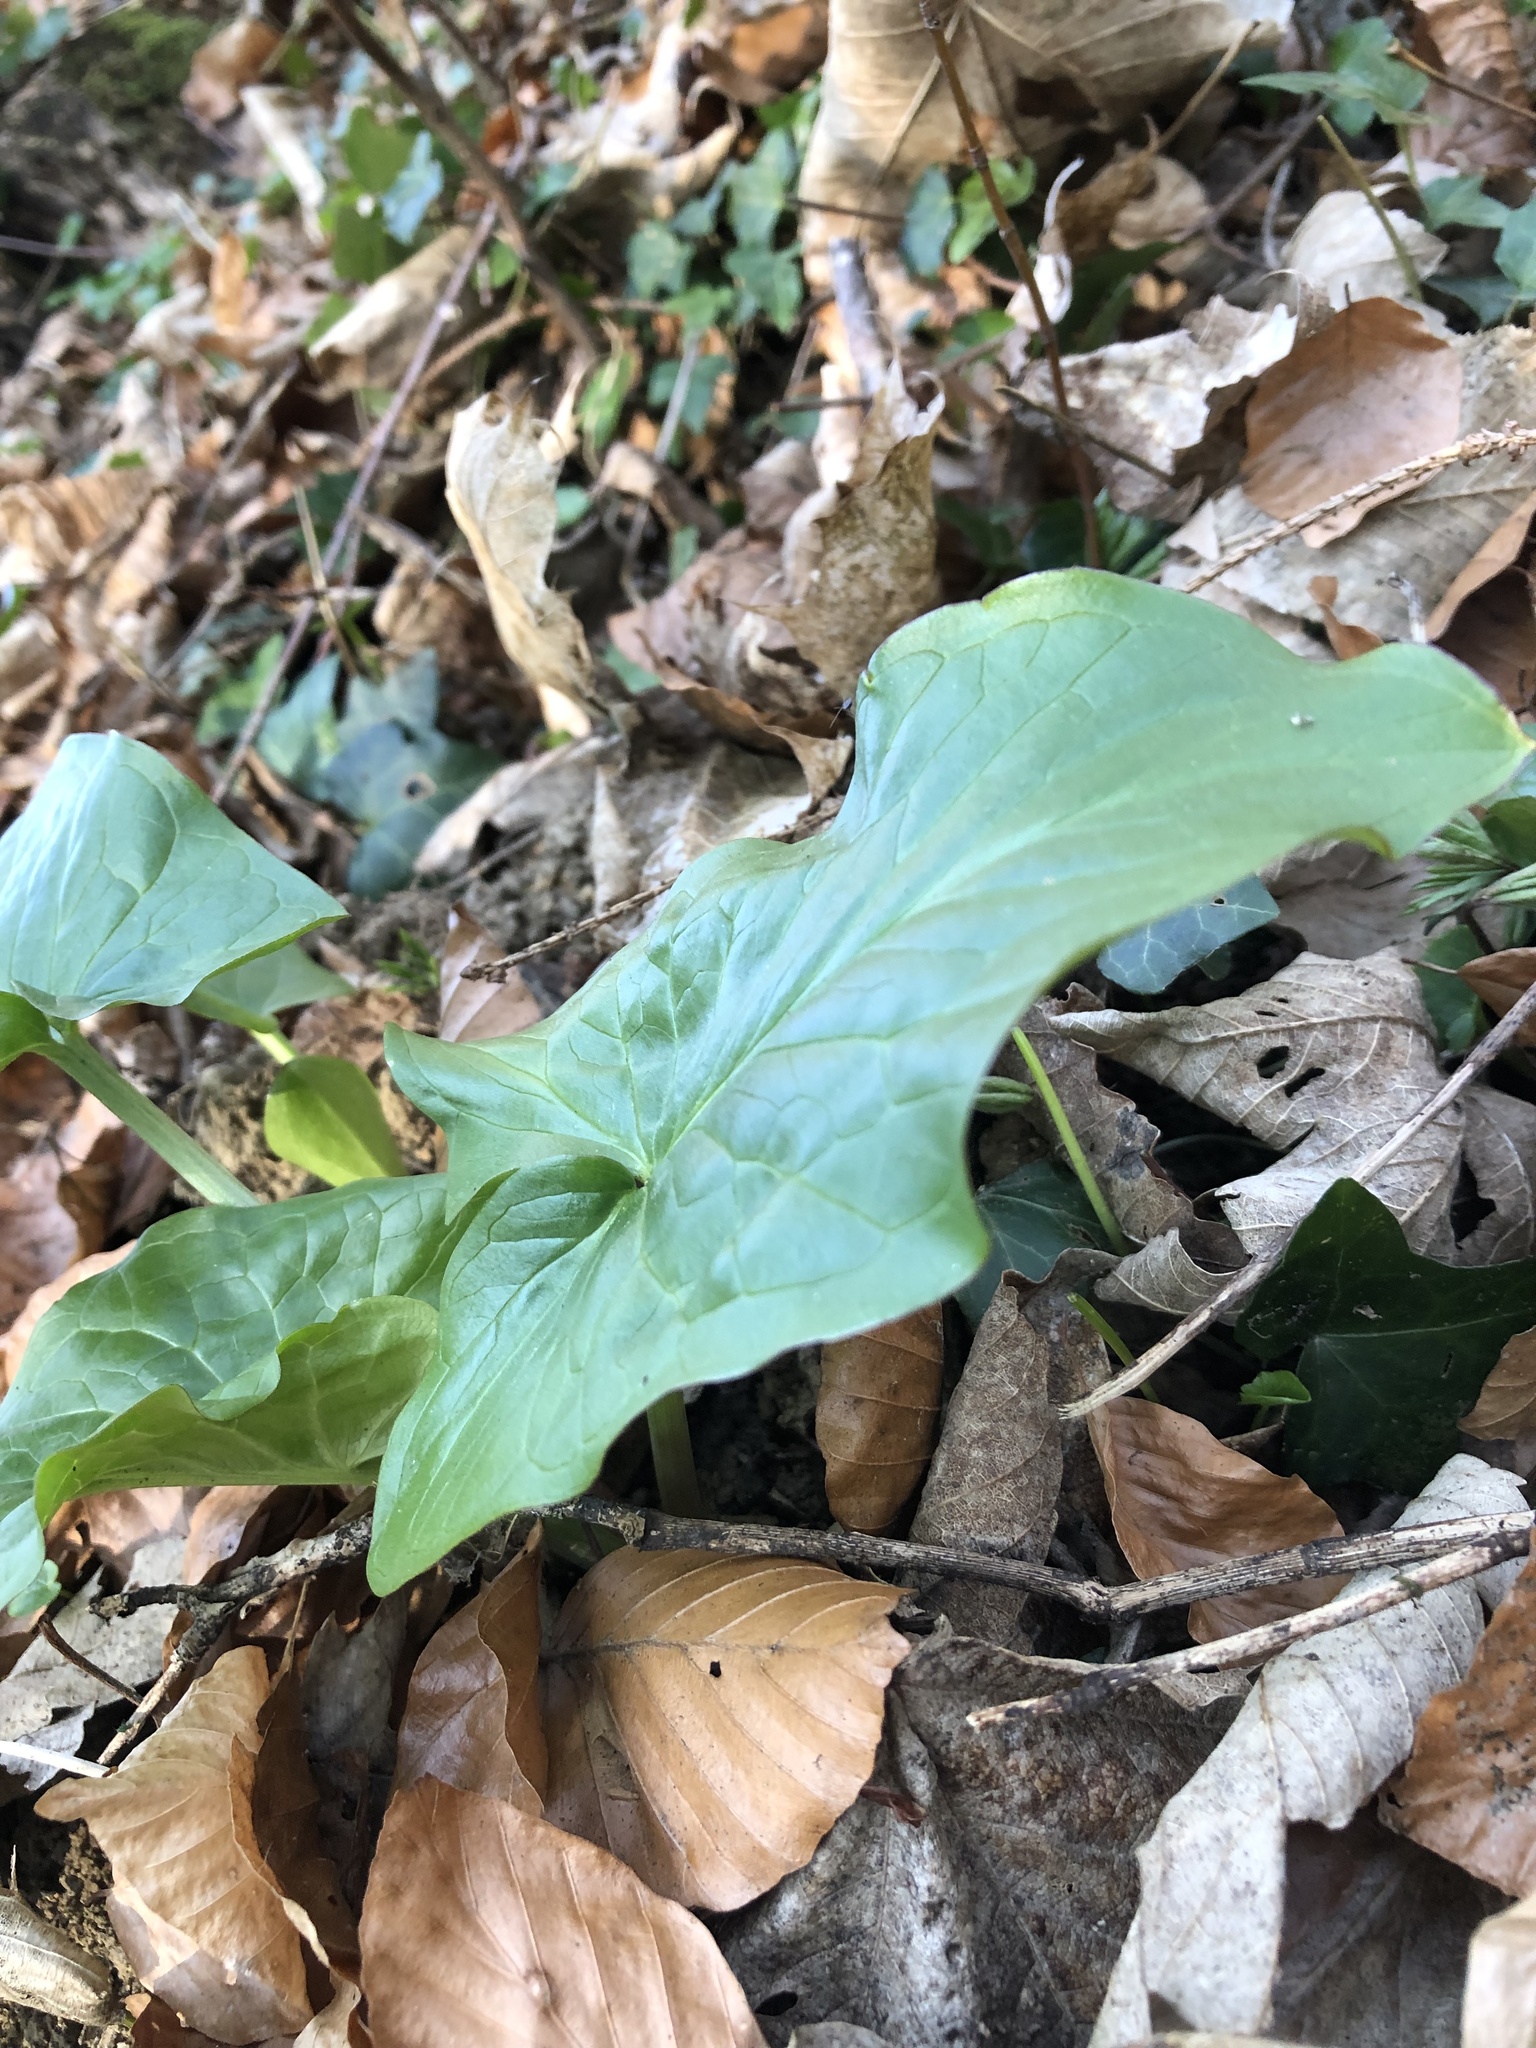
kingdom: Plantae
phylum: Tracheophyta
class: Liliopsida
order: Alismatales
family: Araceae
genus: Arum
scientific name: Arum maculatum
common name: Lords-and-ladies
